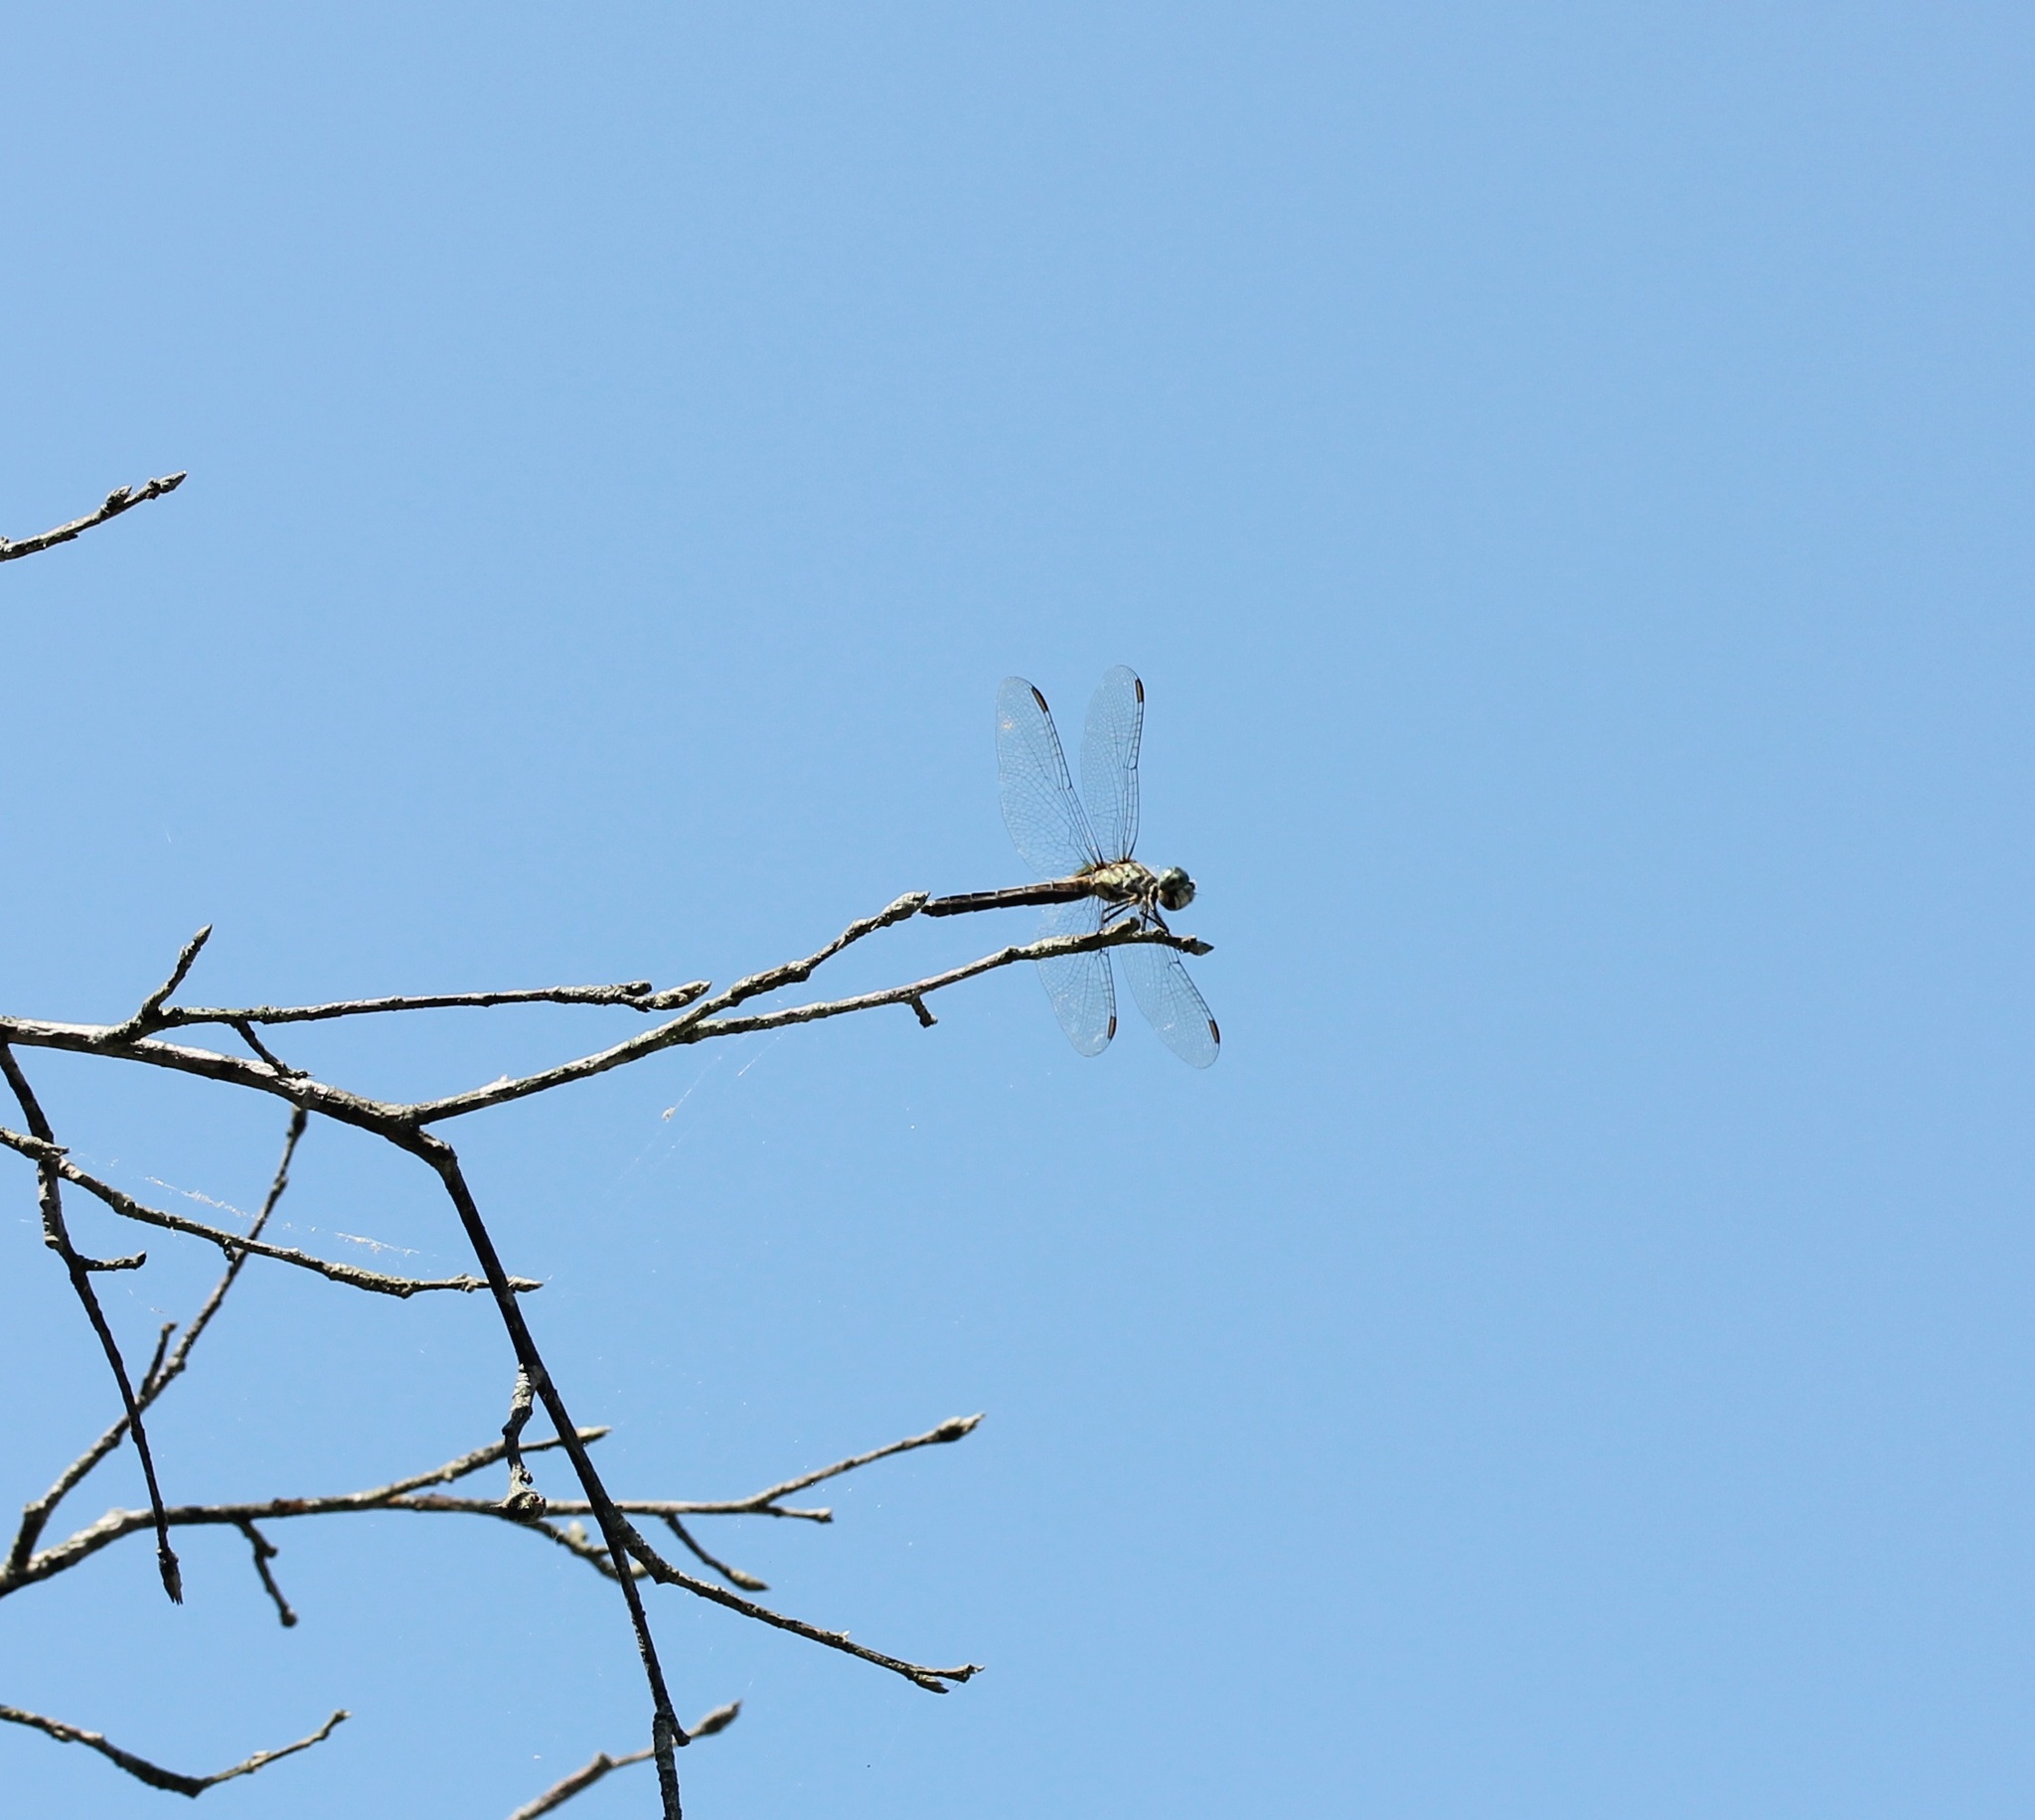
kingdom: Animalia
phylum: Arthropoda
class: Insecta
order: Odonata
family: Libellulidae
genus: Pachydiplax
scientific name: Pachydiplax longipennis
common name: Blue dasher
